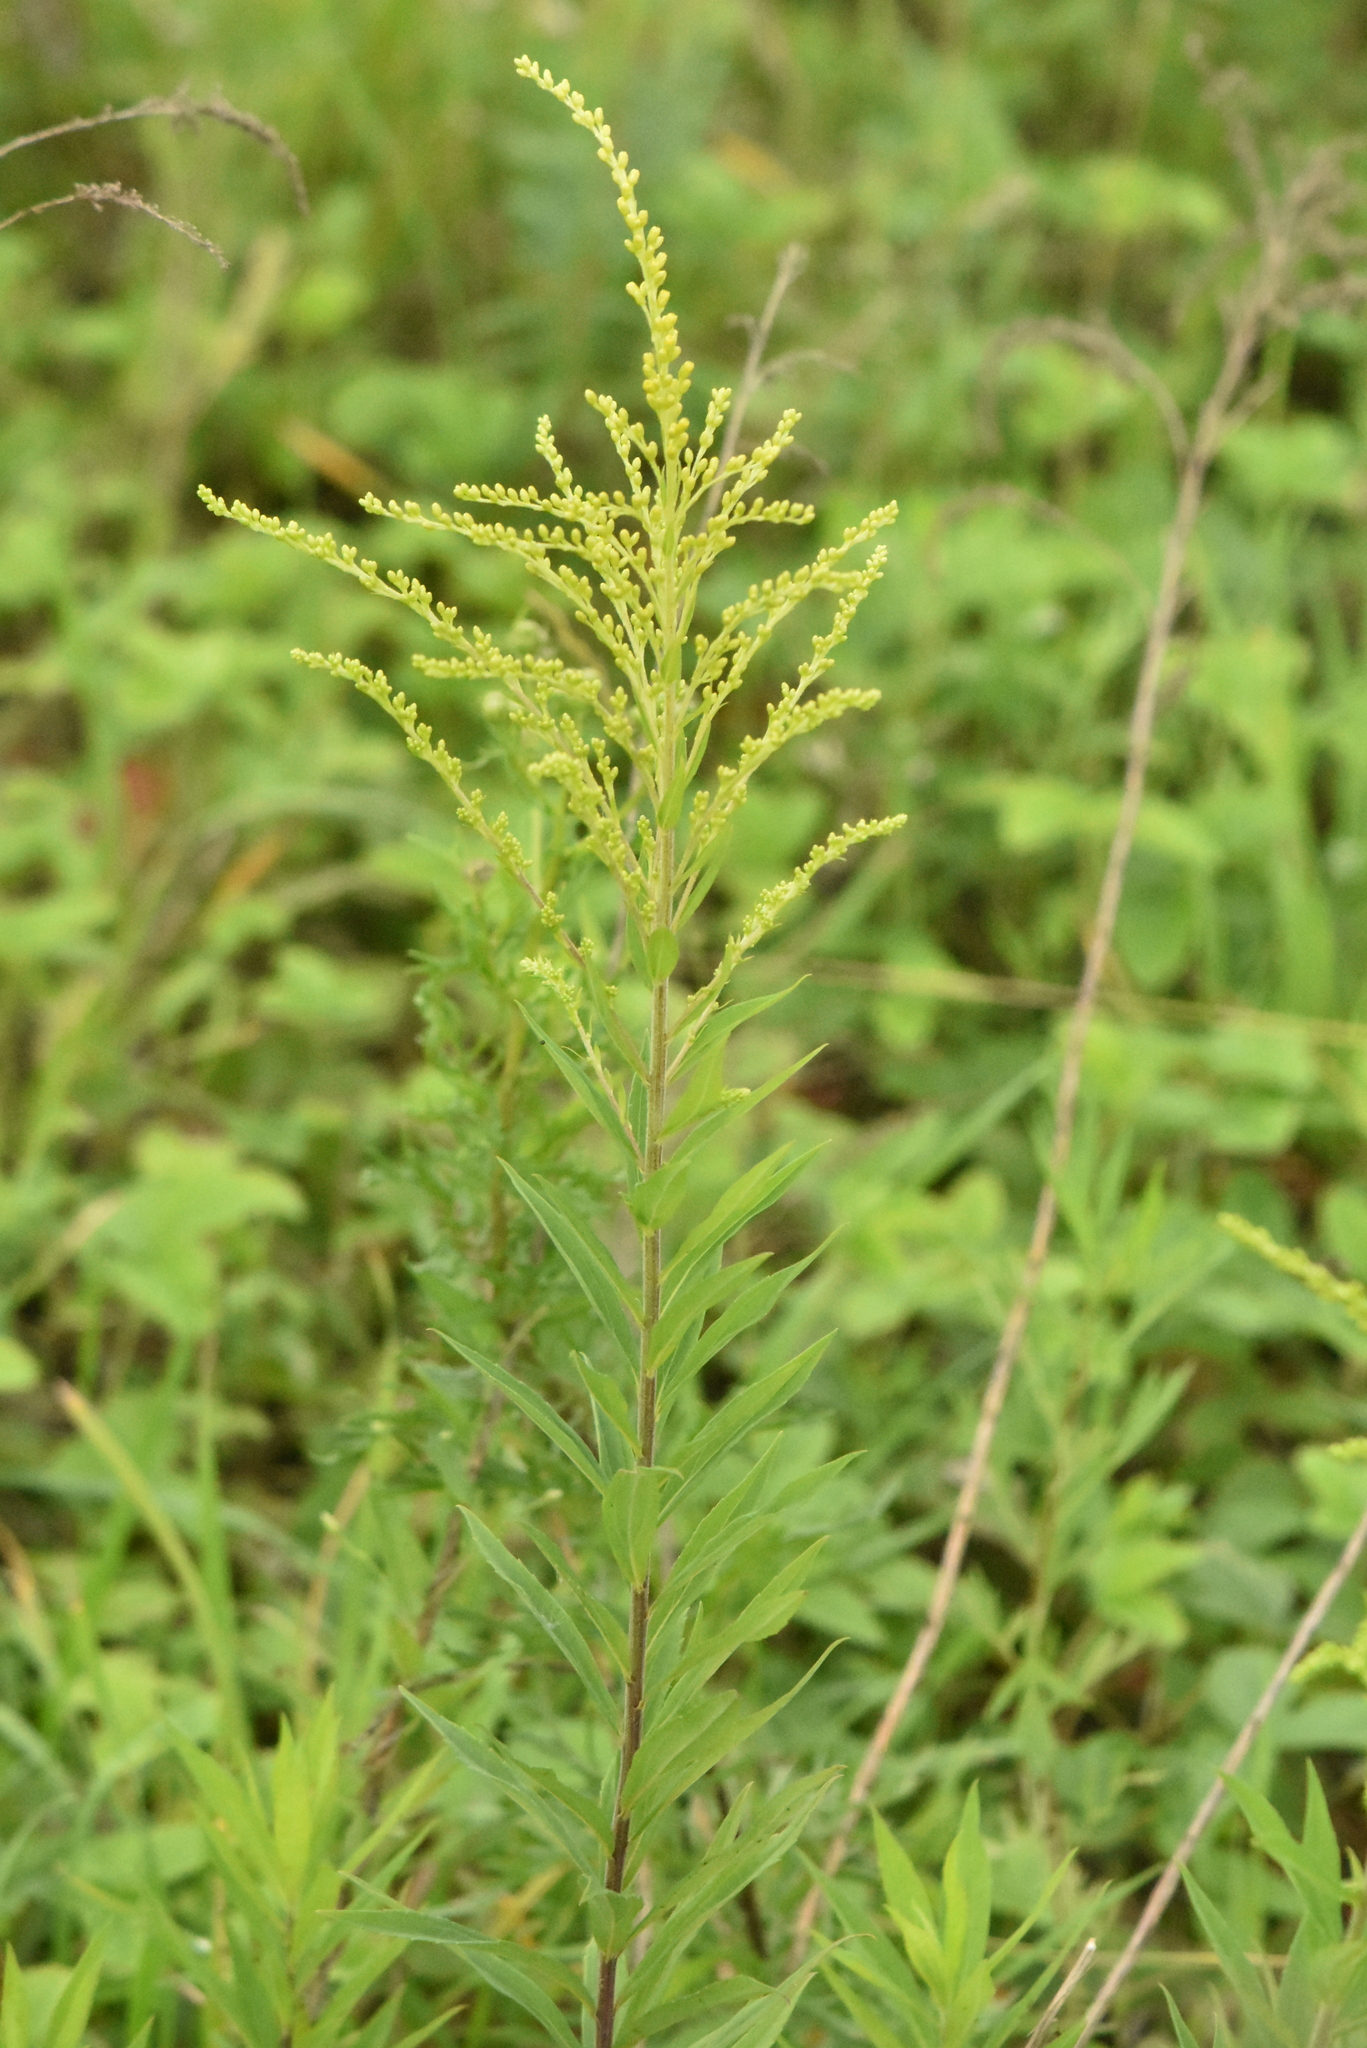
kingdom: Plantae
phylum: Tracheophyta
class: Magnoliopsida
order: Asterales
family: Asteraceae
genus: Solidago
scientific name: Solidago canadensis
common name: Canada goldenrod
